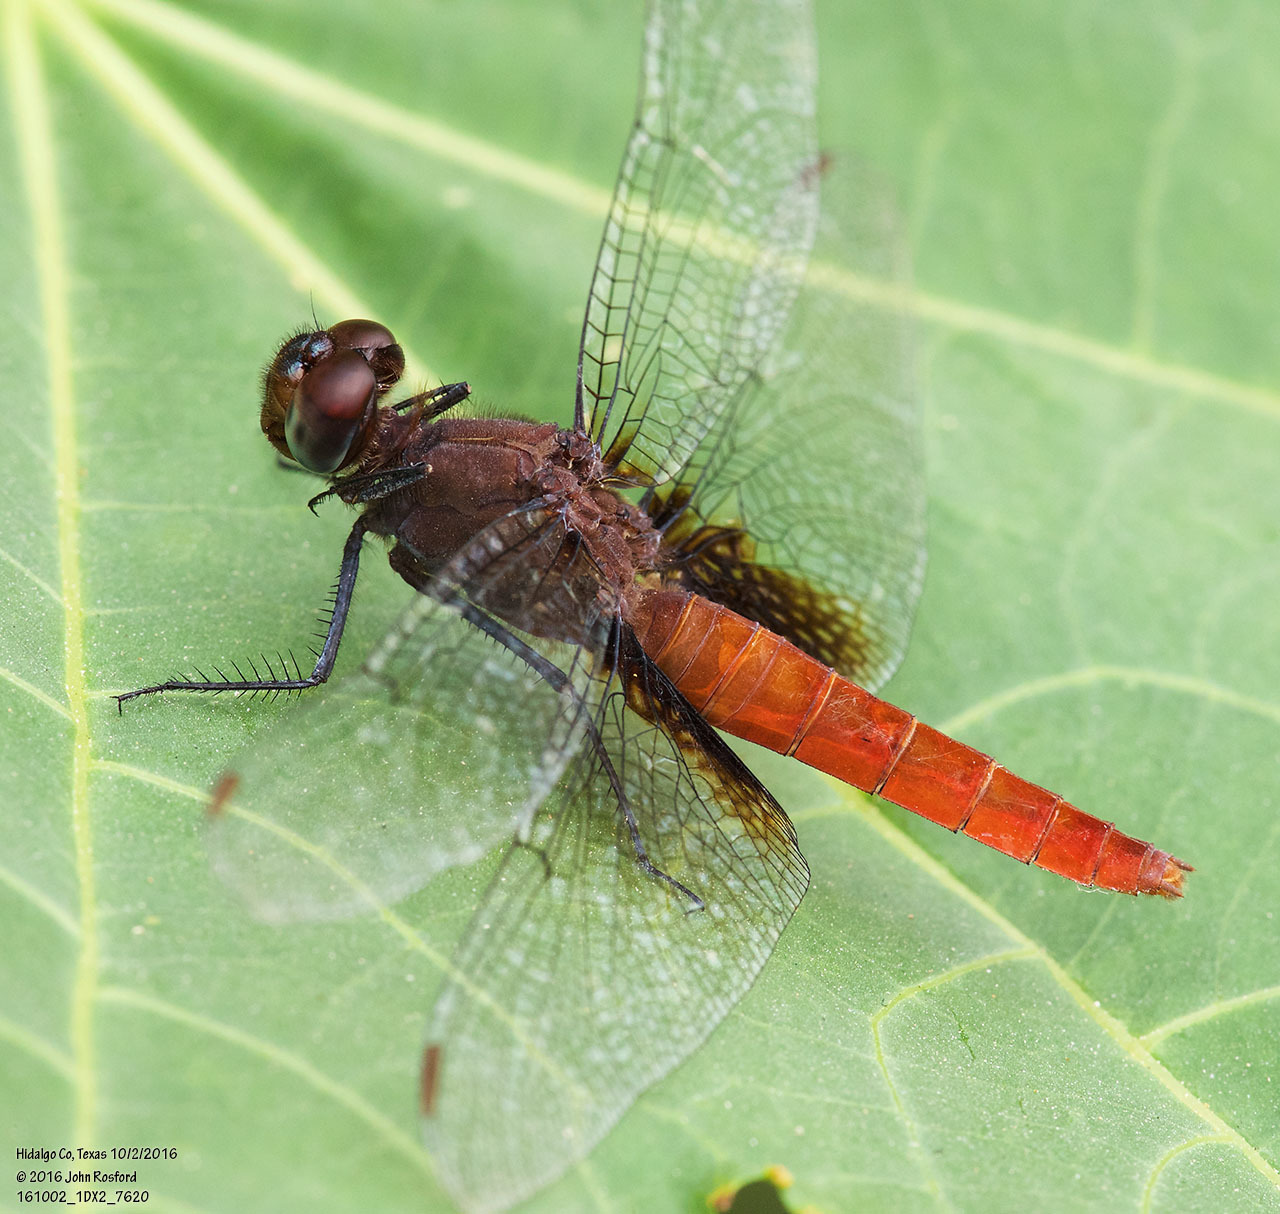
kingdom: Animalia
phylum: Arthropoda
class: Insecta
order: Odonata
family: Libellulidae
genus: Planiplax
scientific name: Planiplax sanguiniventris
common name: Mexican scarlet-tail
